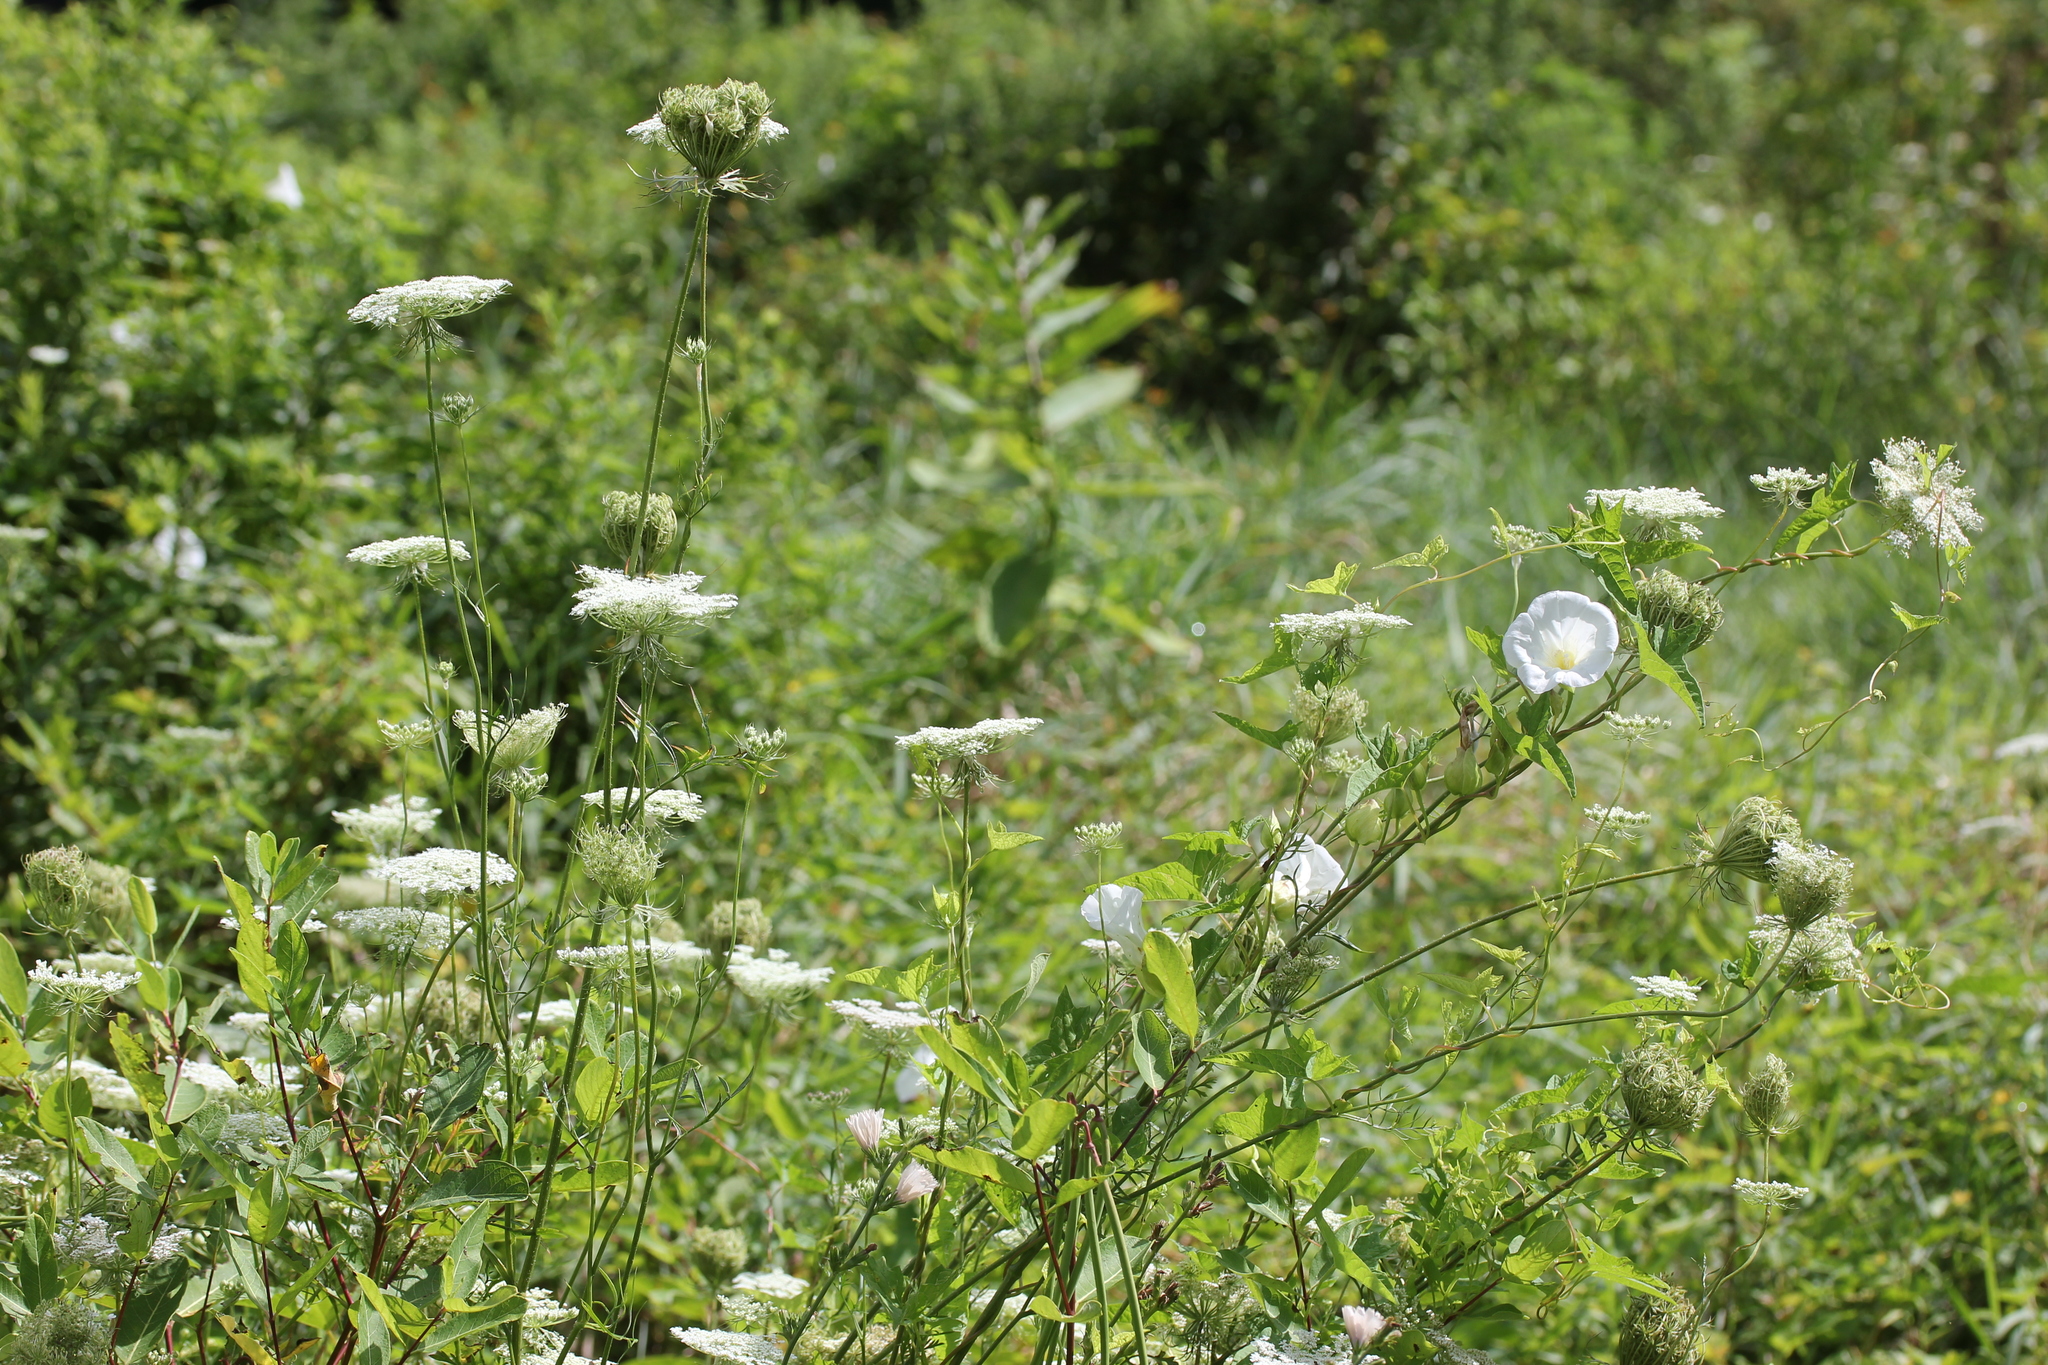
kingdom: Plantae
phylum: Tracheophyta
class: Magnoliopsida
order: Apiales
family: Apiaceae
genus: Daucus
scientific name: Daucus carota
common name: Wild carrot
